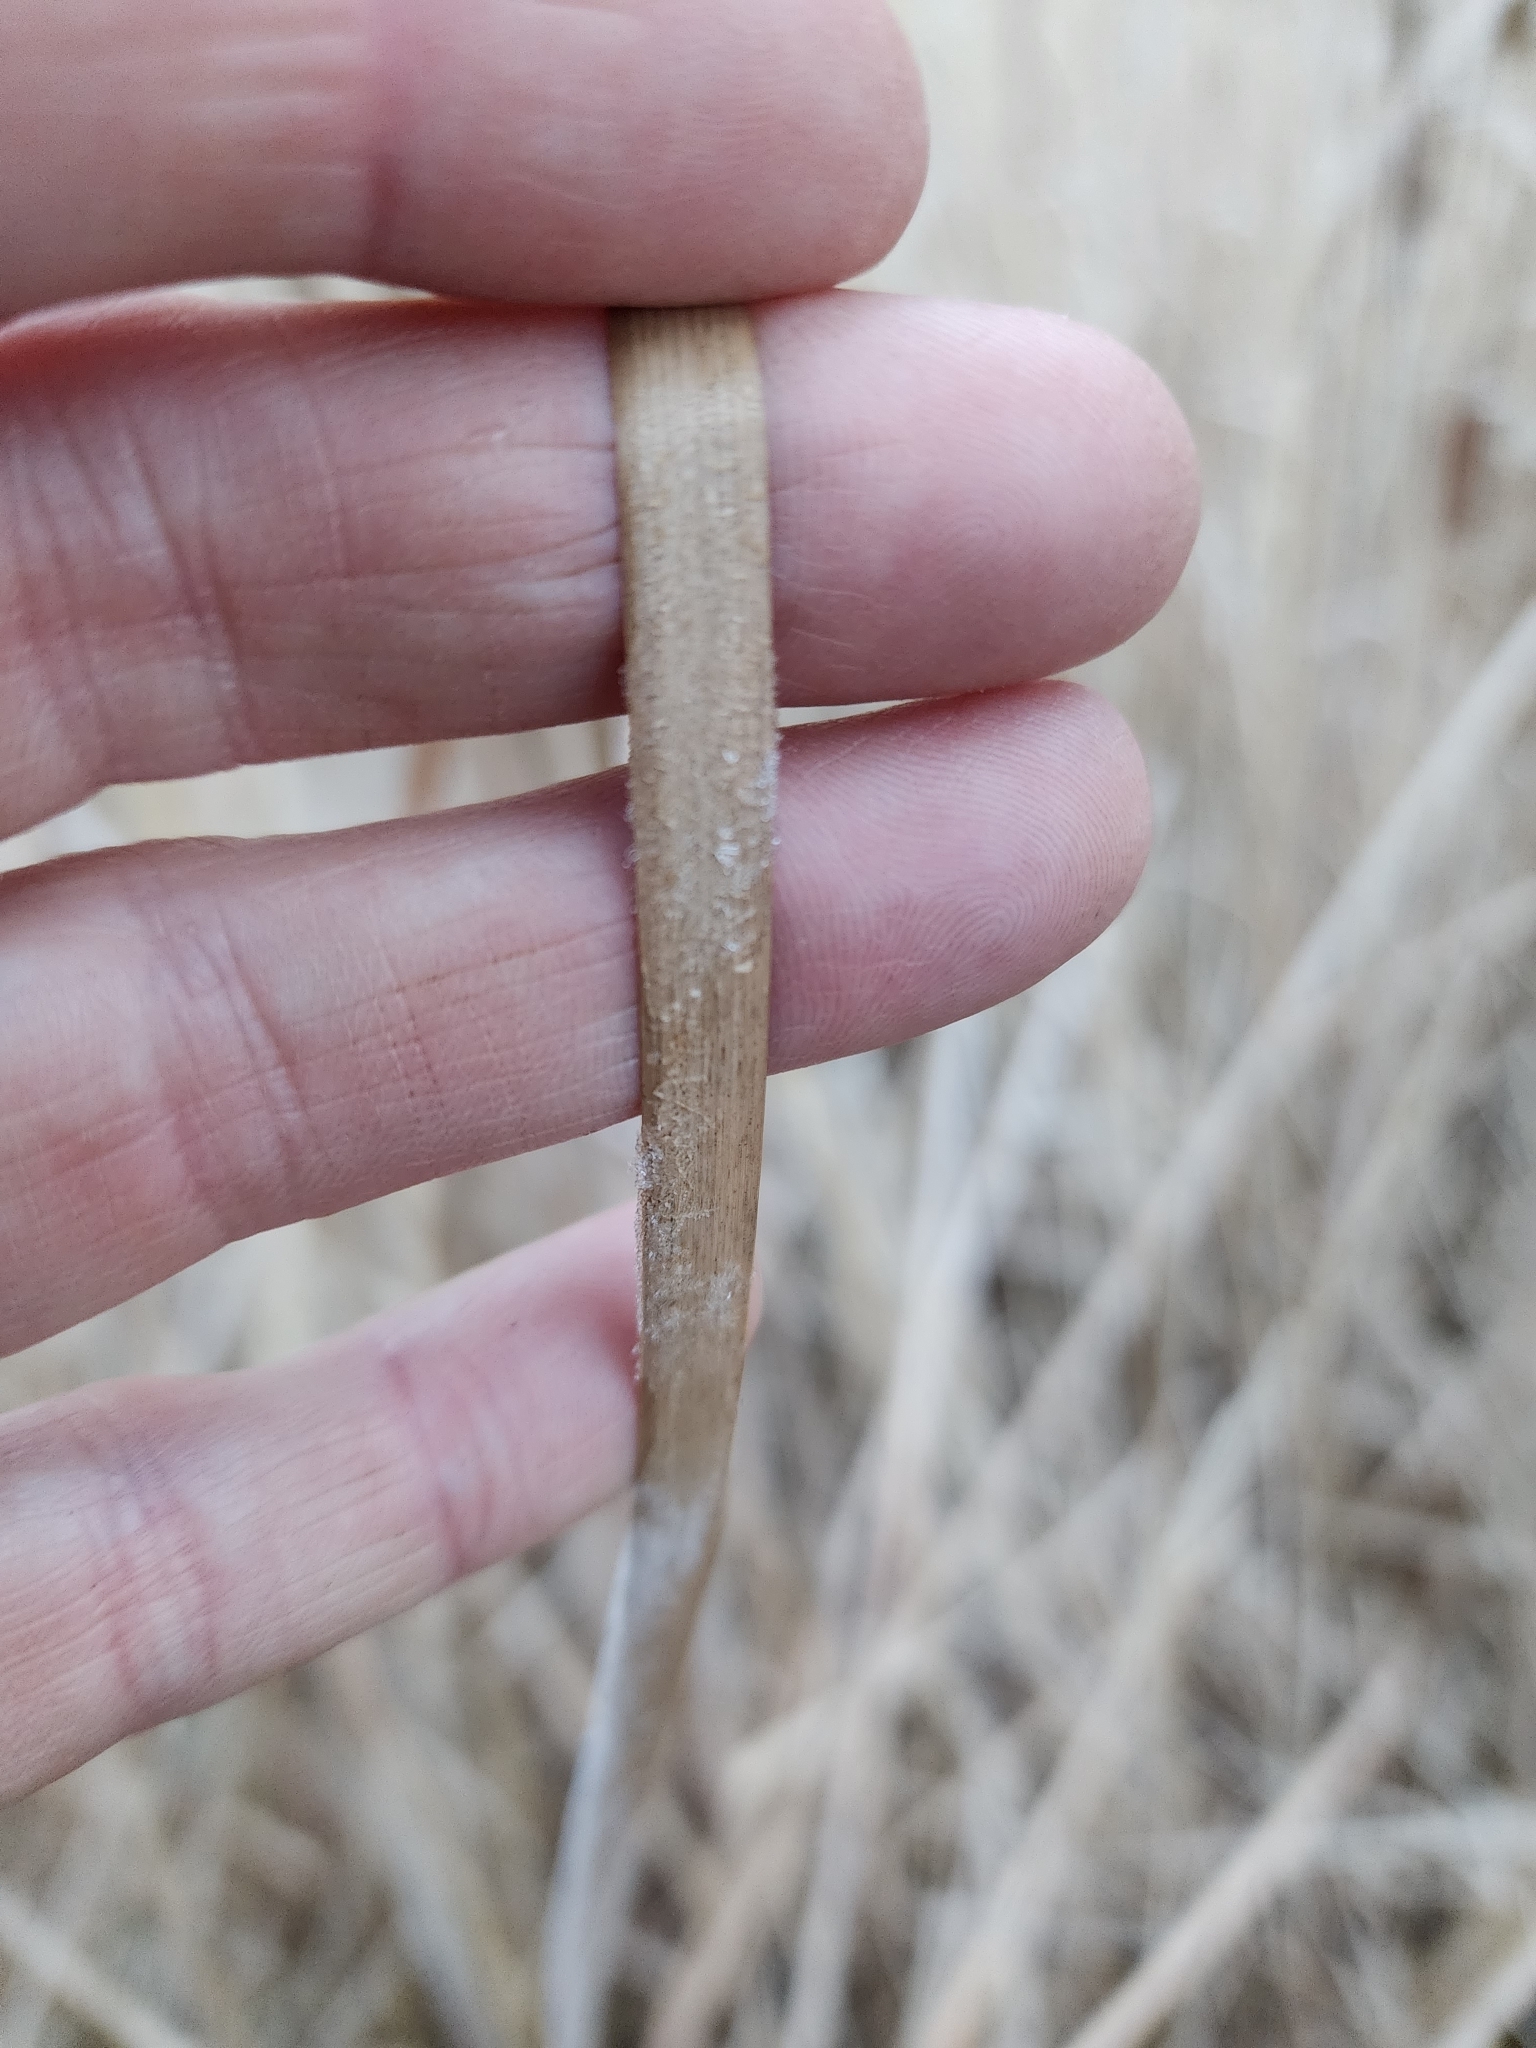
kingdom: Plantae
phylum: Tracheophyta
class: Liliopsida
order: Poales
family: Typhaceae
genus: Typha
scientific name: Typha angustifolia
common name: Lesser bulrush
